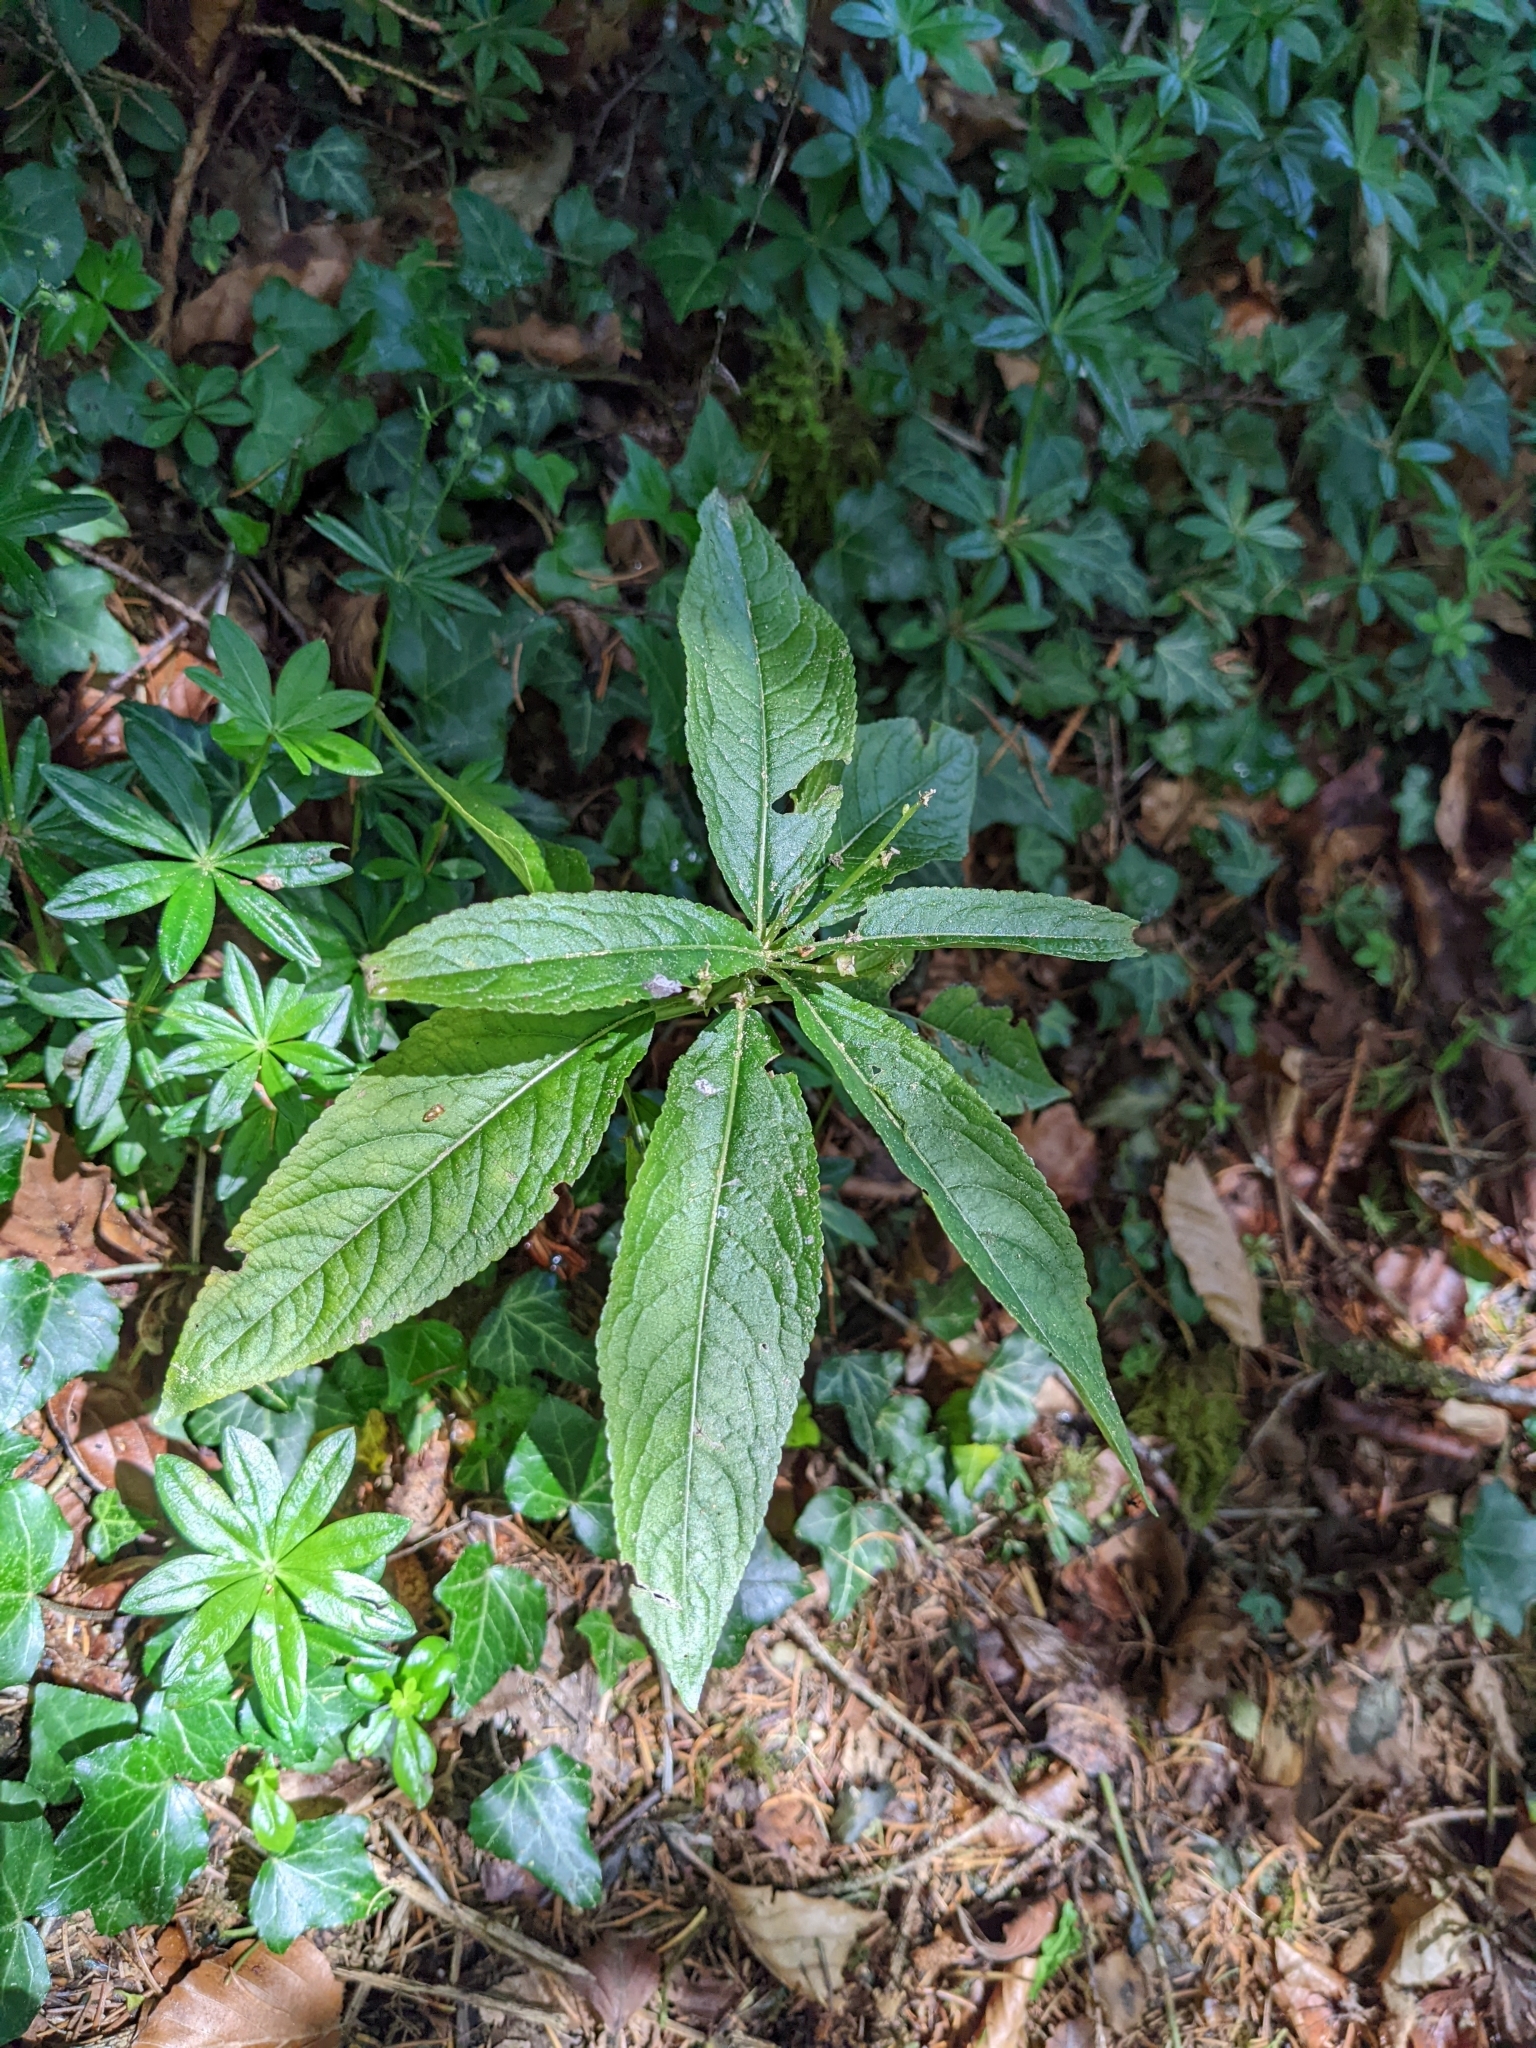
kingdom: Plantae
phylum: Tracheophyta
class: Magnoliopsida
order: Malpighiales
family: Euphorbiaceae
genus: Mercurialis
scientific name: Mercurialis perennis
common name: Dog mercury
